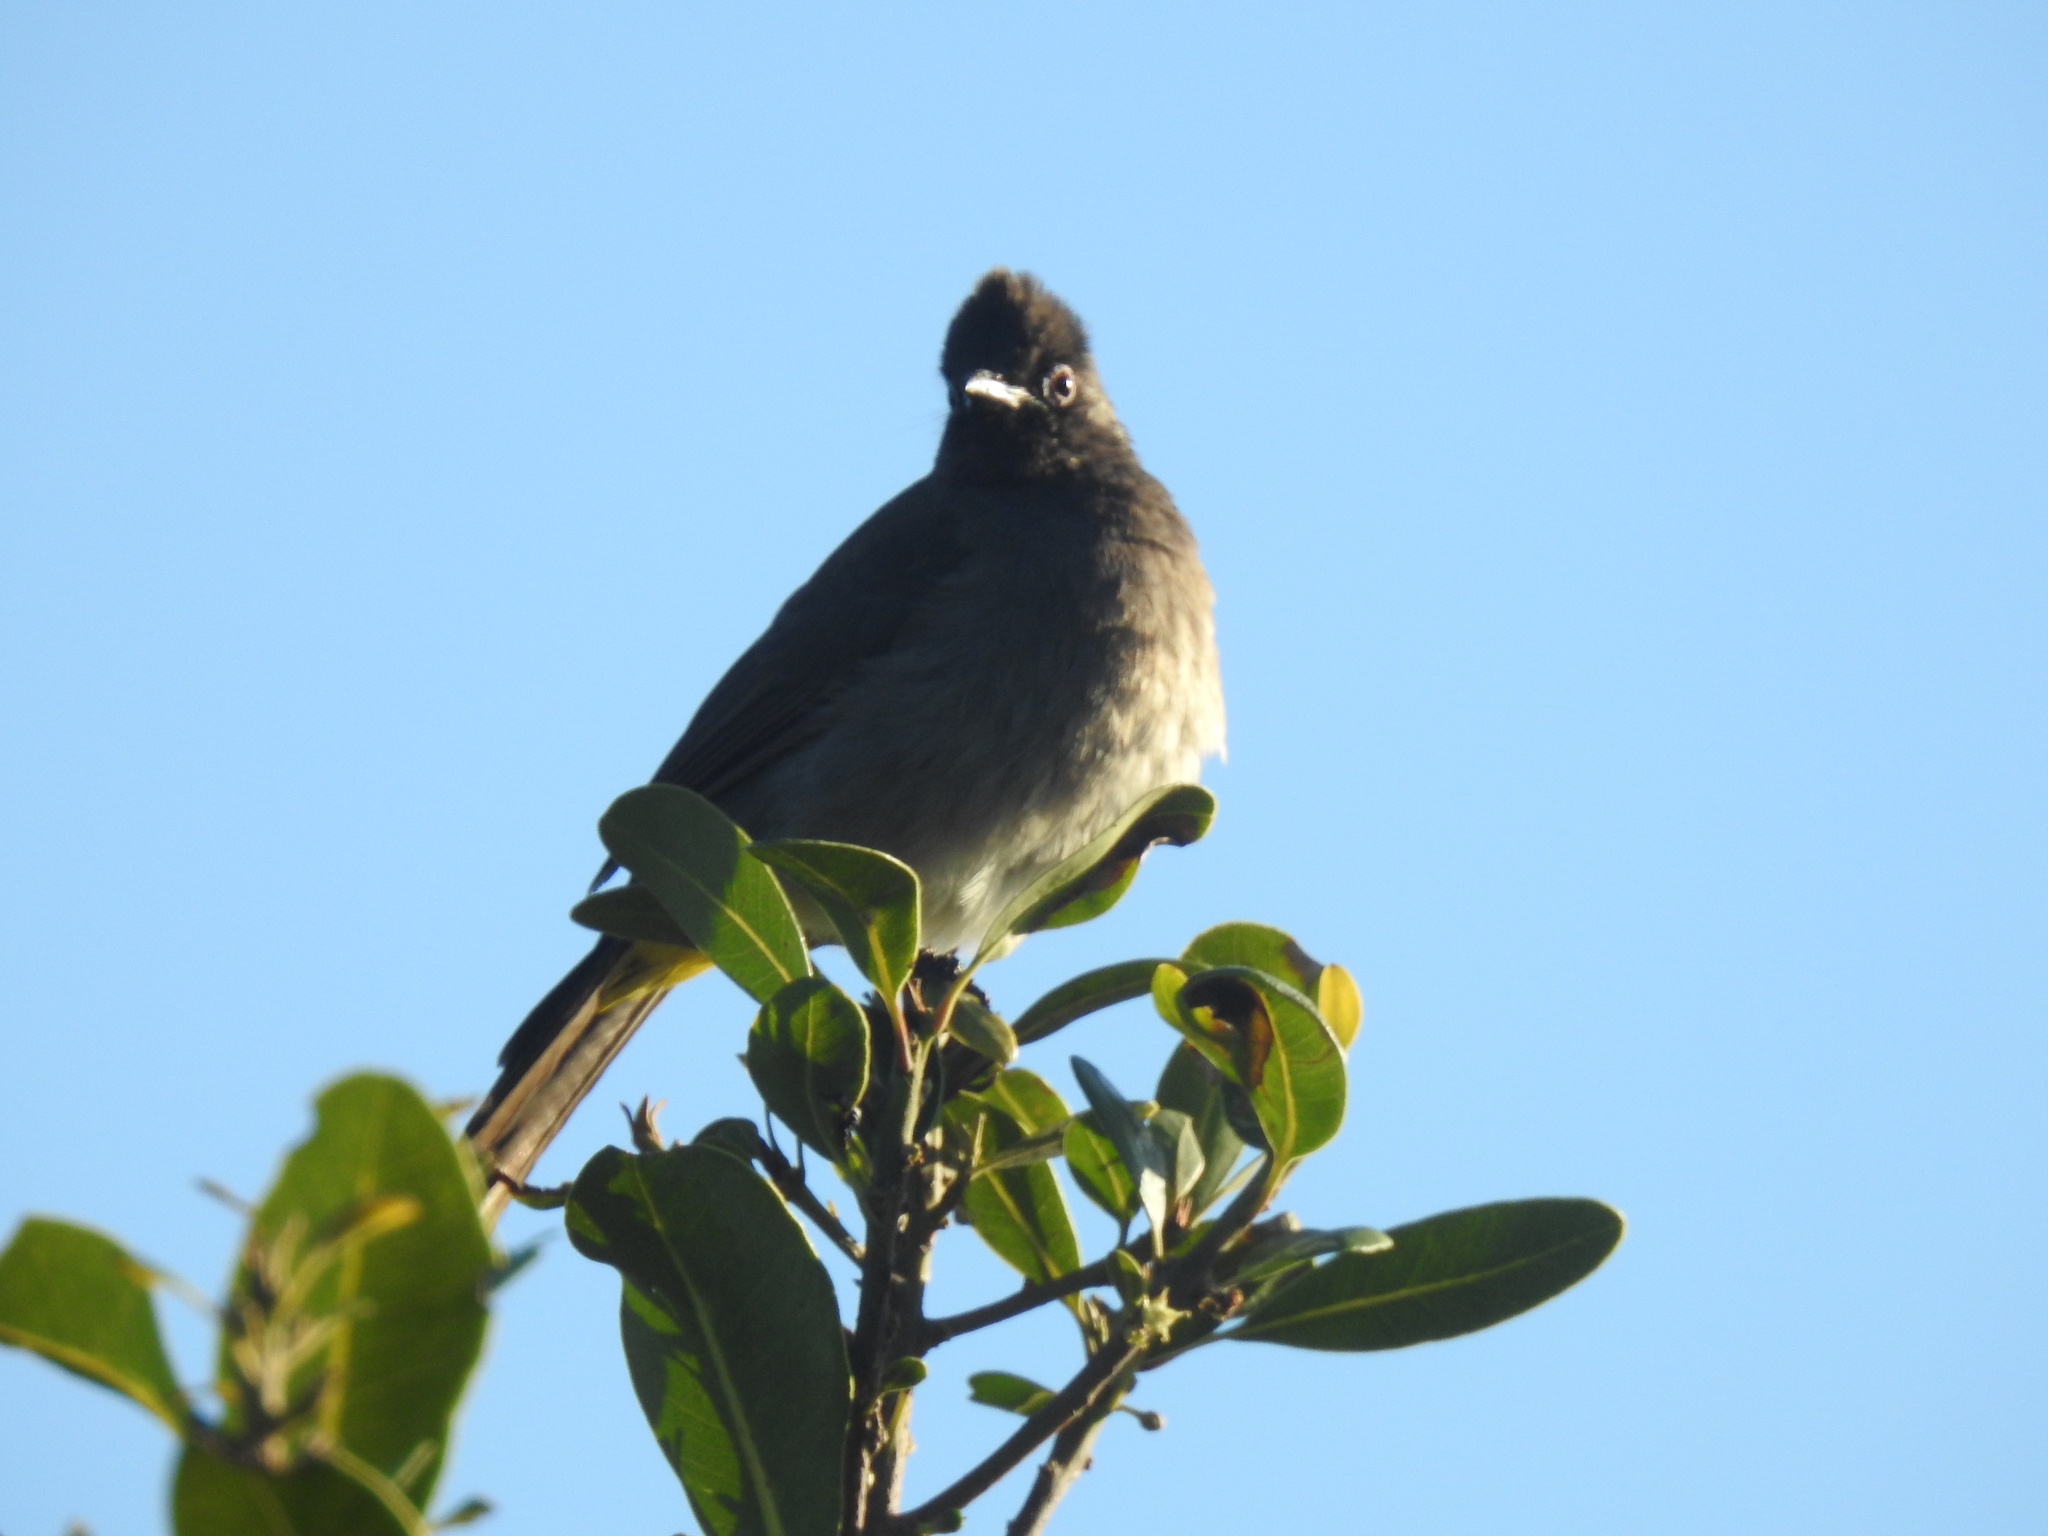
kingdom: Animalia
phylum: Chordata
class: Aves
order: Passeriformes
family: Pycnonotidae
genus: Pycnonotus
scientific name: Pycnonotus capensis
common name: Cape bulbul
